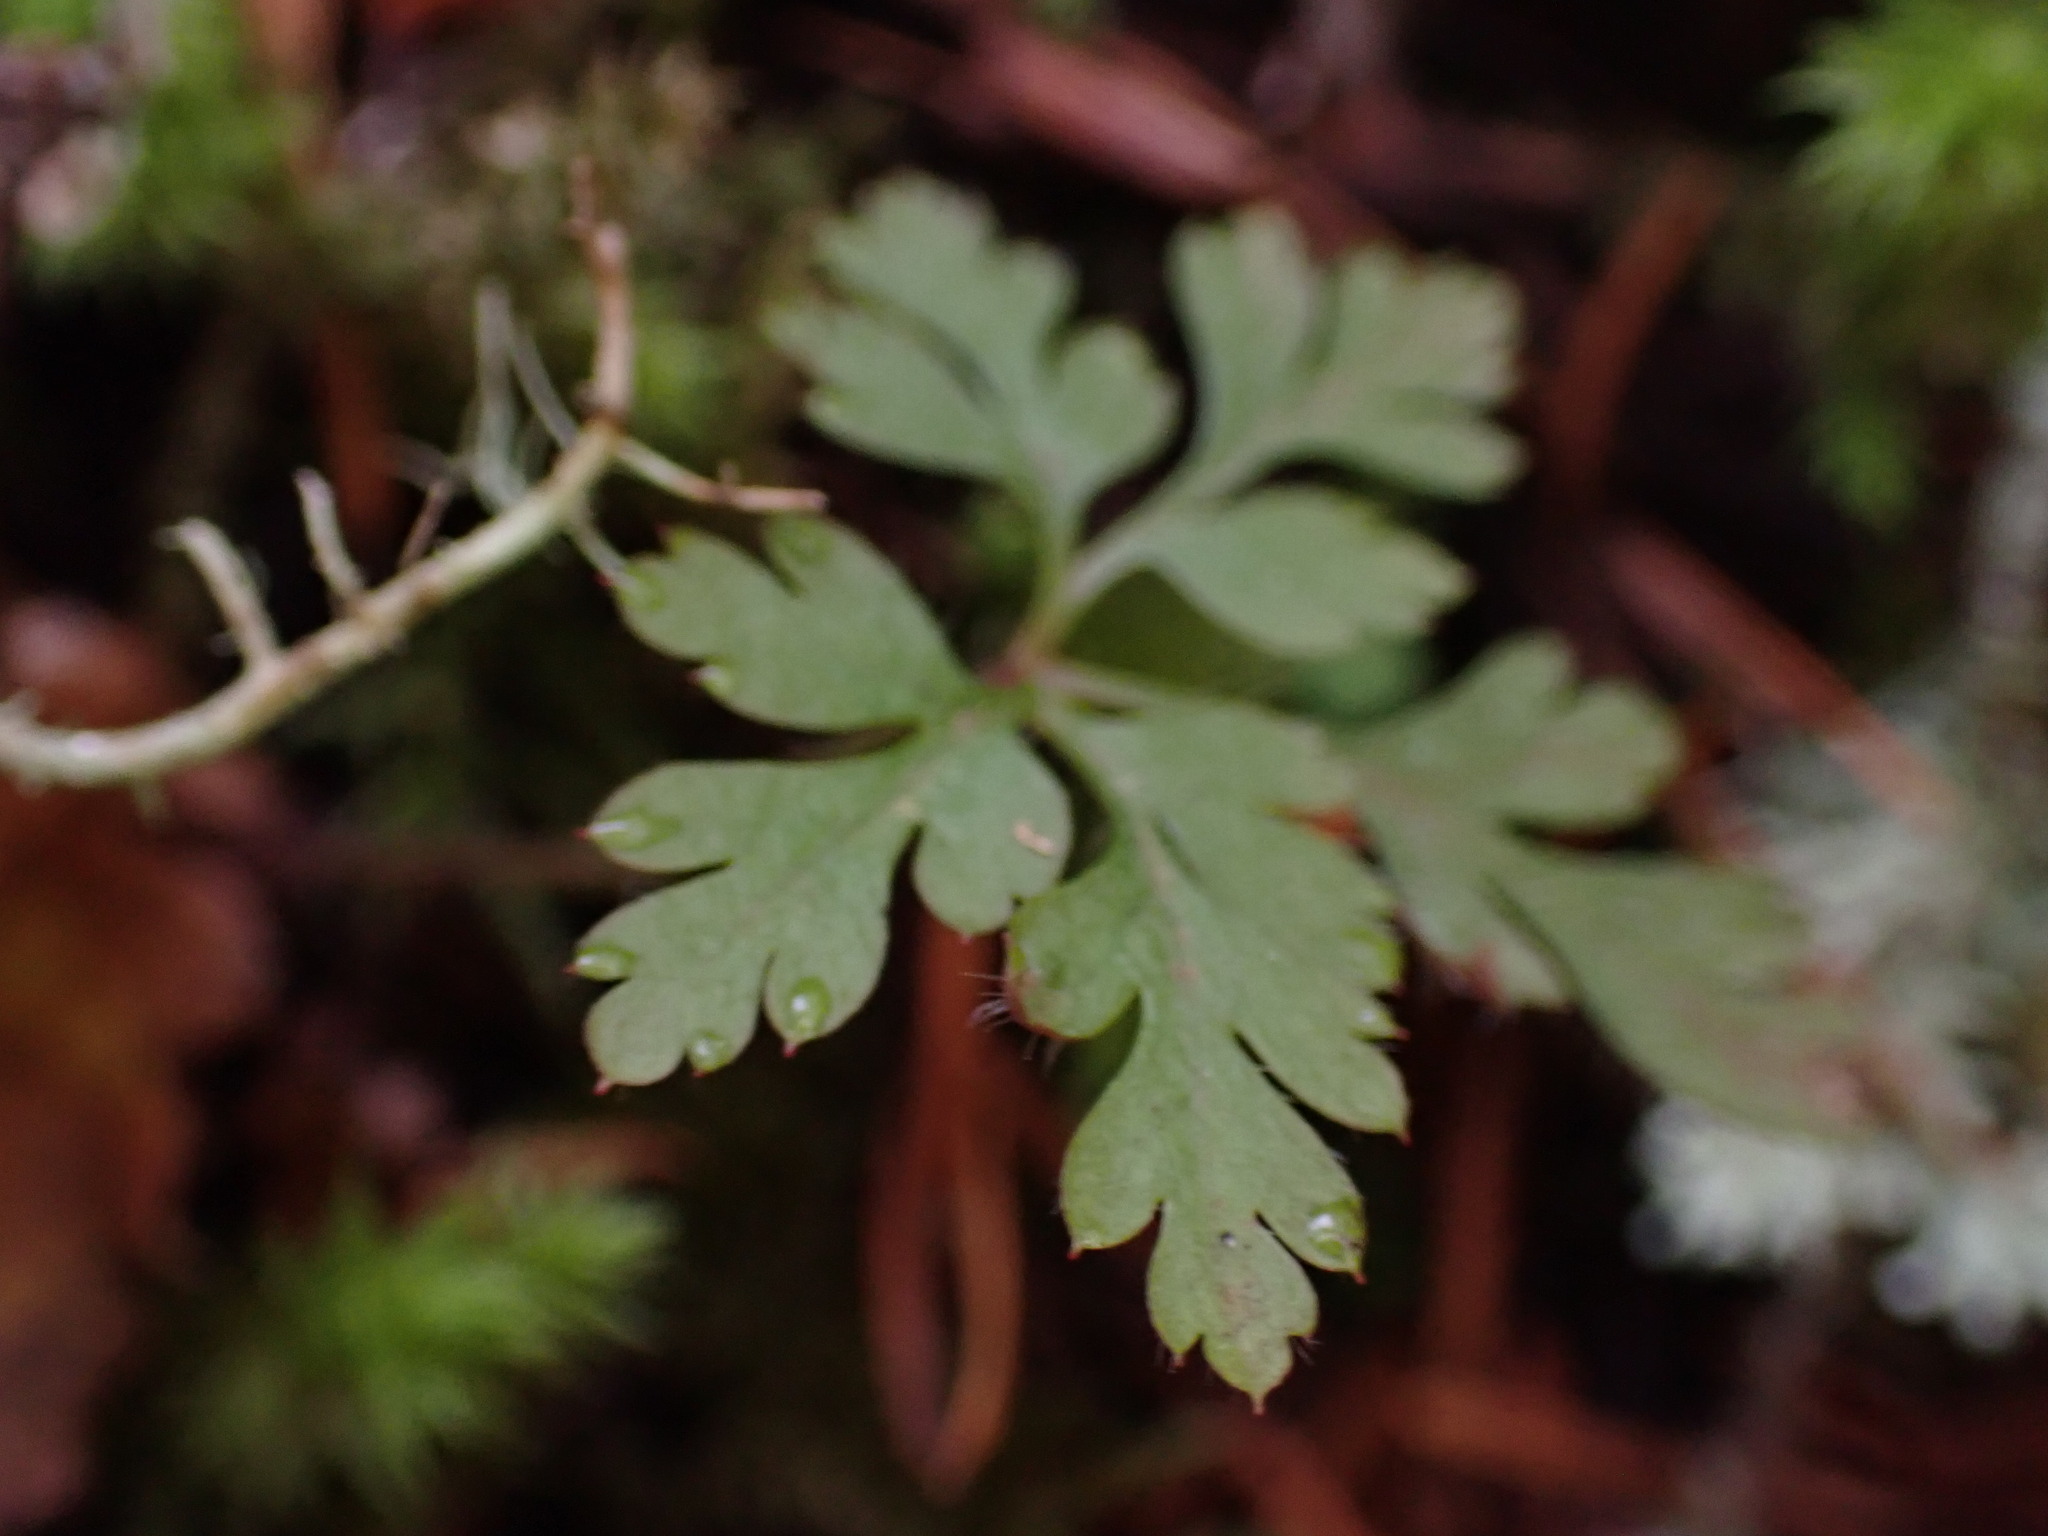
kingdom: Plantae
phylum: Tracheophyta
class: Magnoliopsida
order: Geraniales
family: Geraniaceae
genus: Geranium
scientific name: Geranium robertianum
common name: Herb-robert
